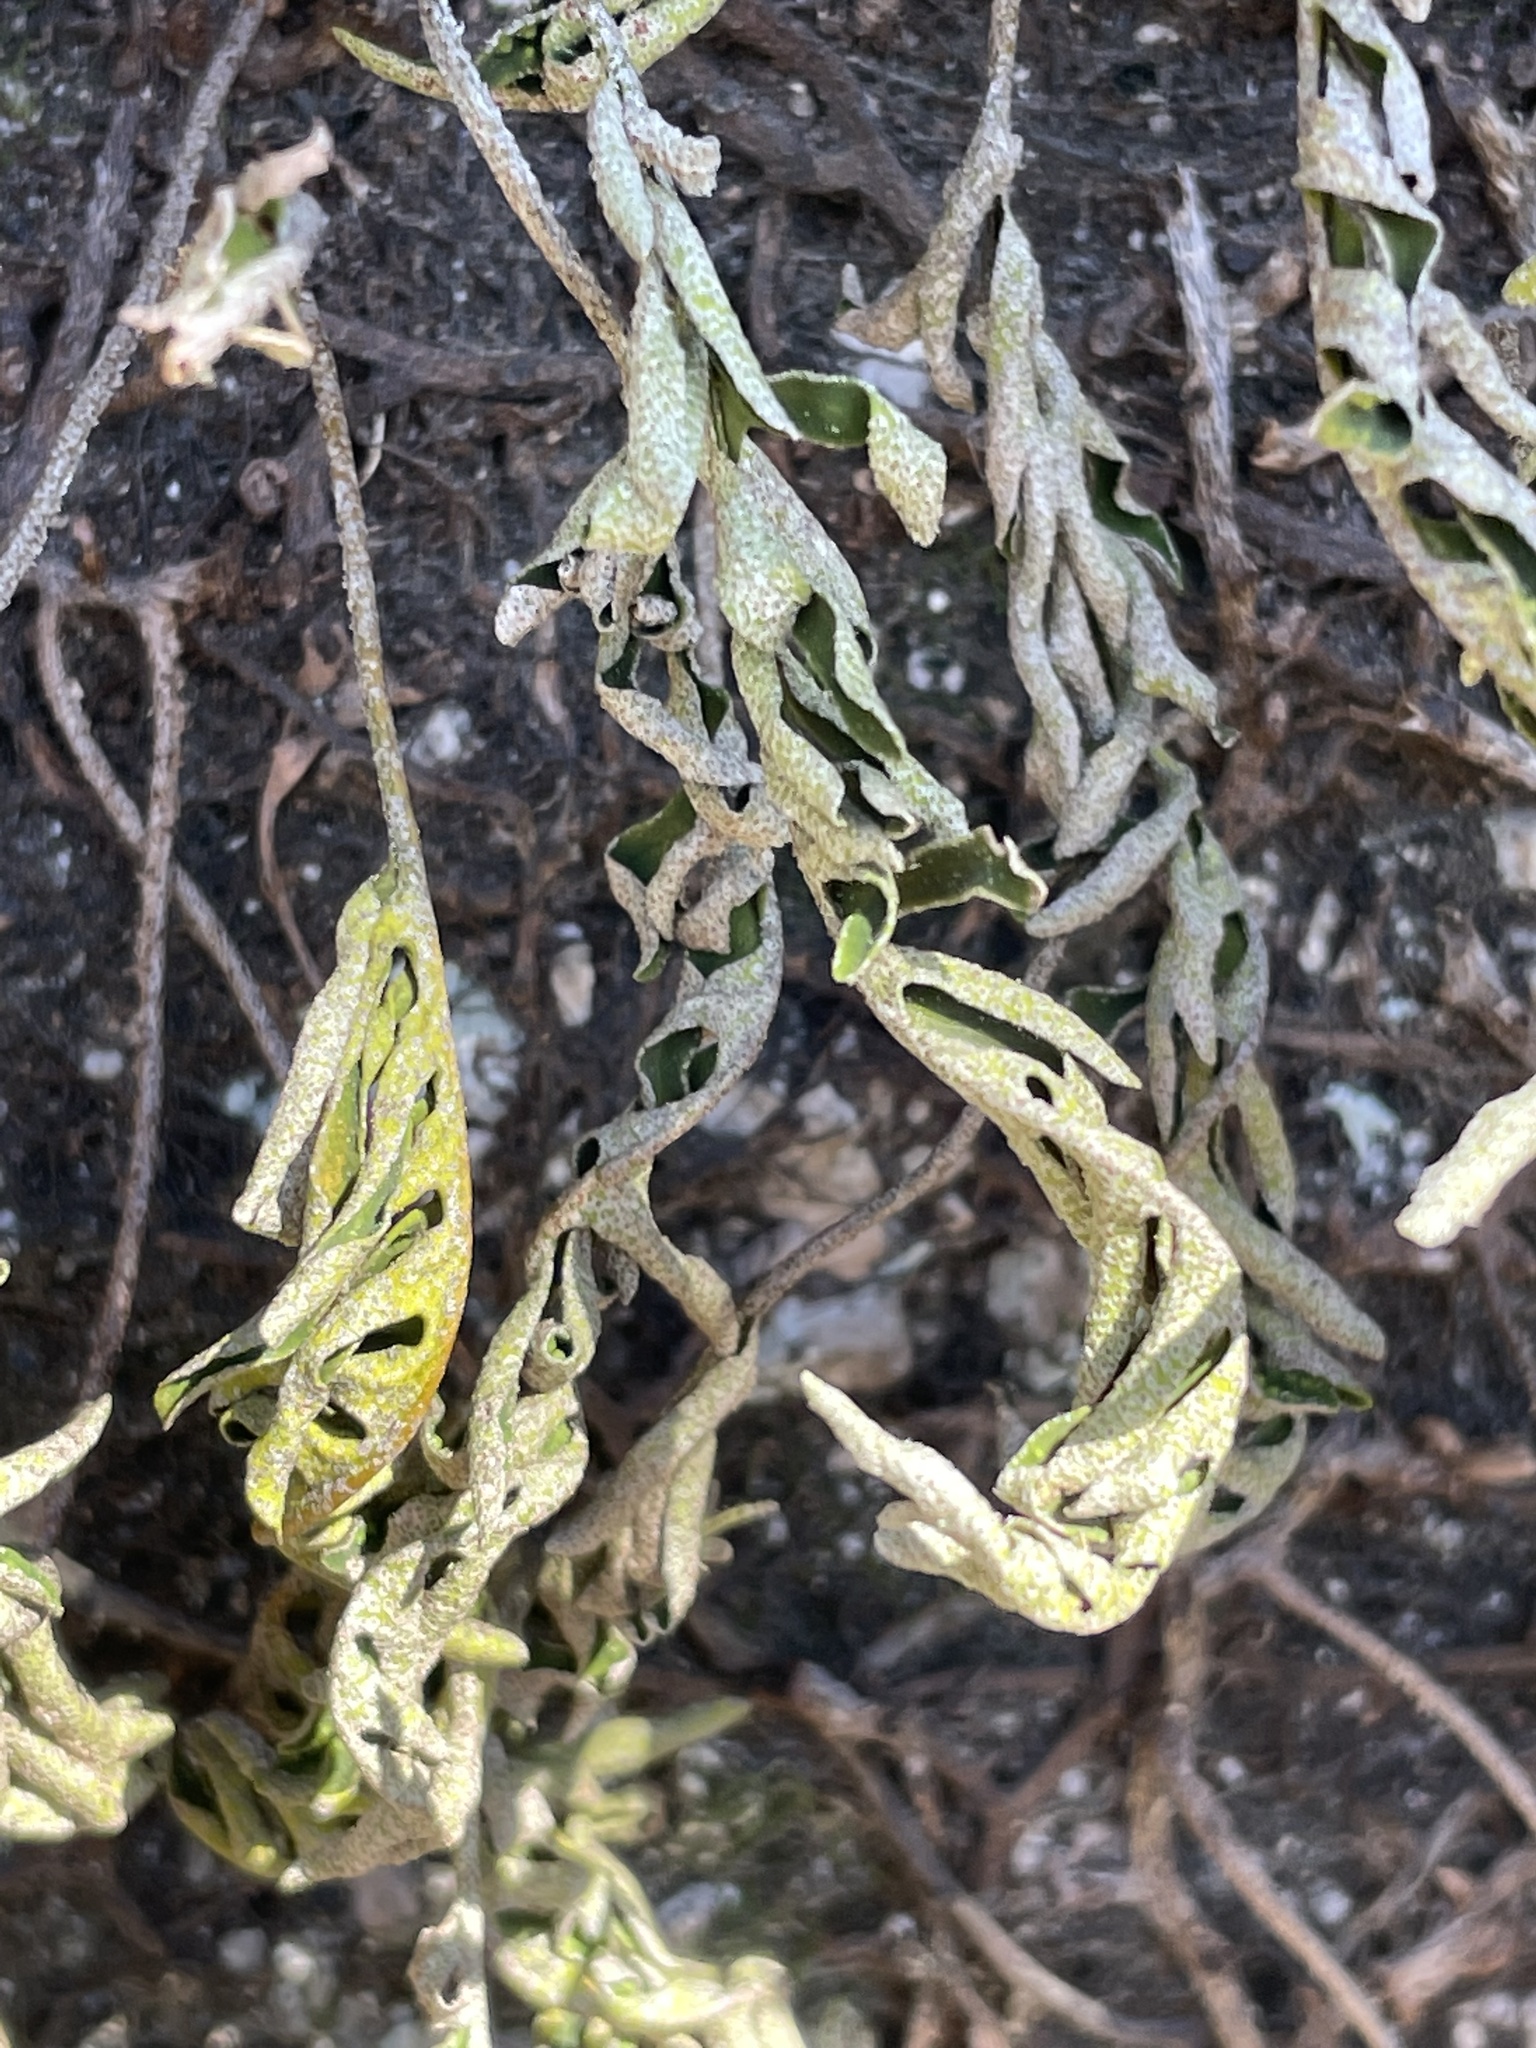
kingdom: Plantae
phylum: Tracheophyta
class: Polypodiopsida
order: Polypodiales
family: Polypodiaceae
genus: Pleopeltis
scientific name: Pleopeltis michauxiana
